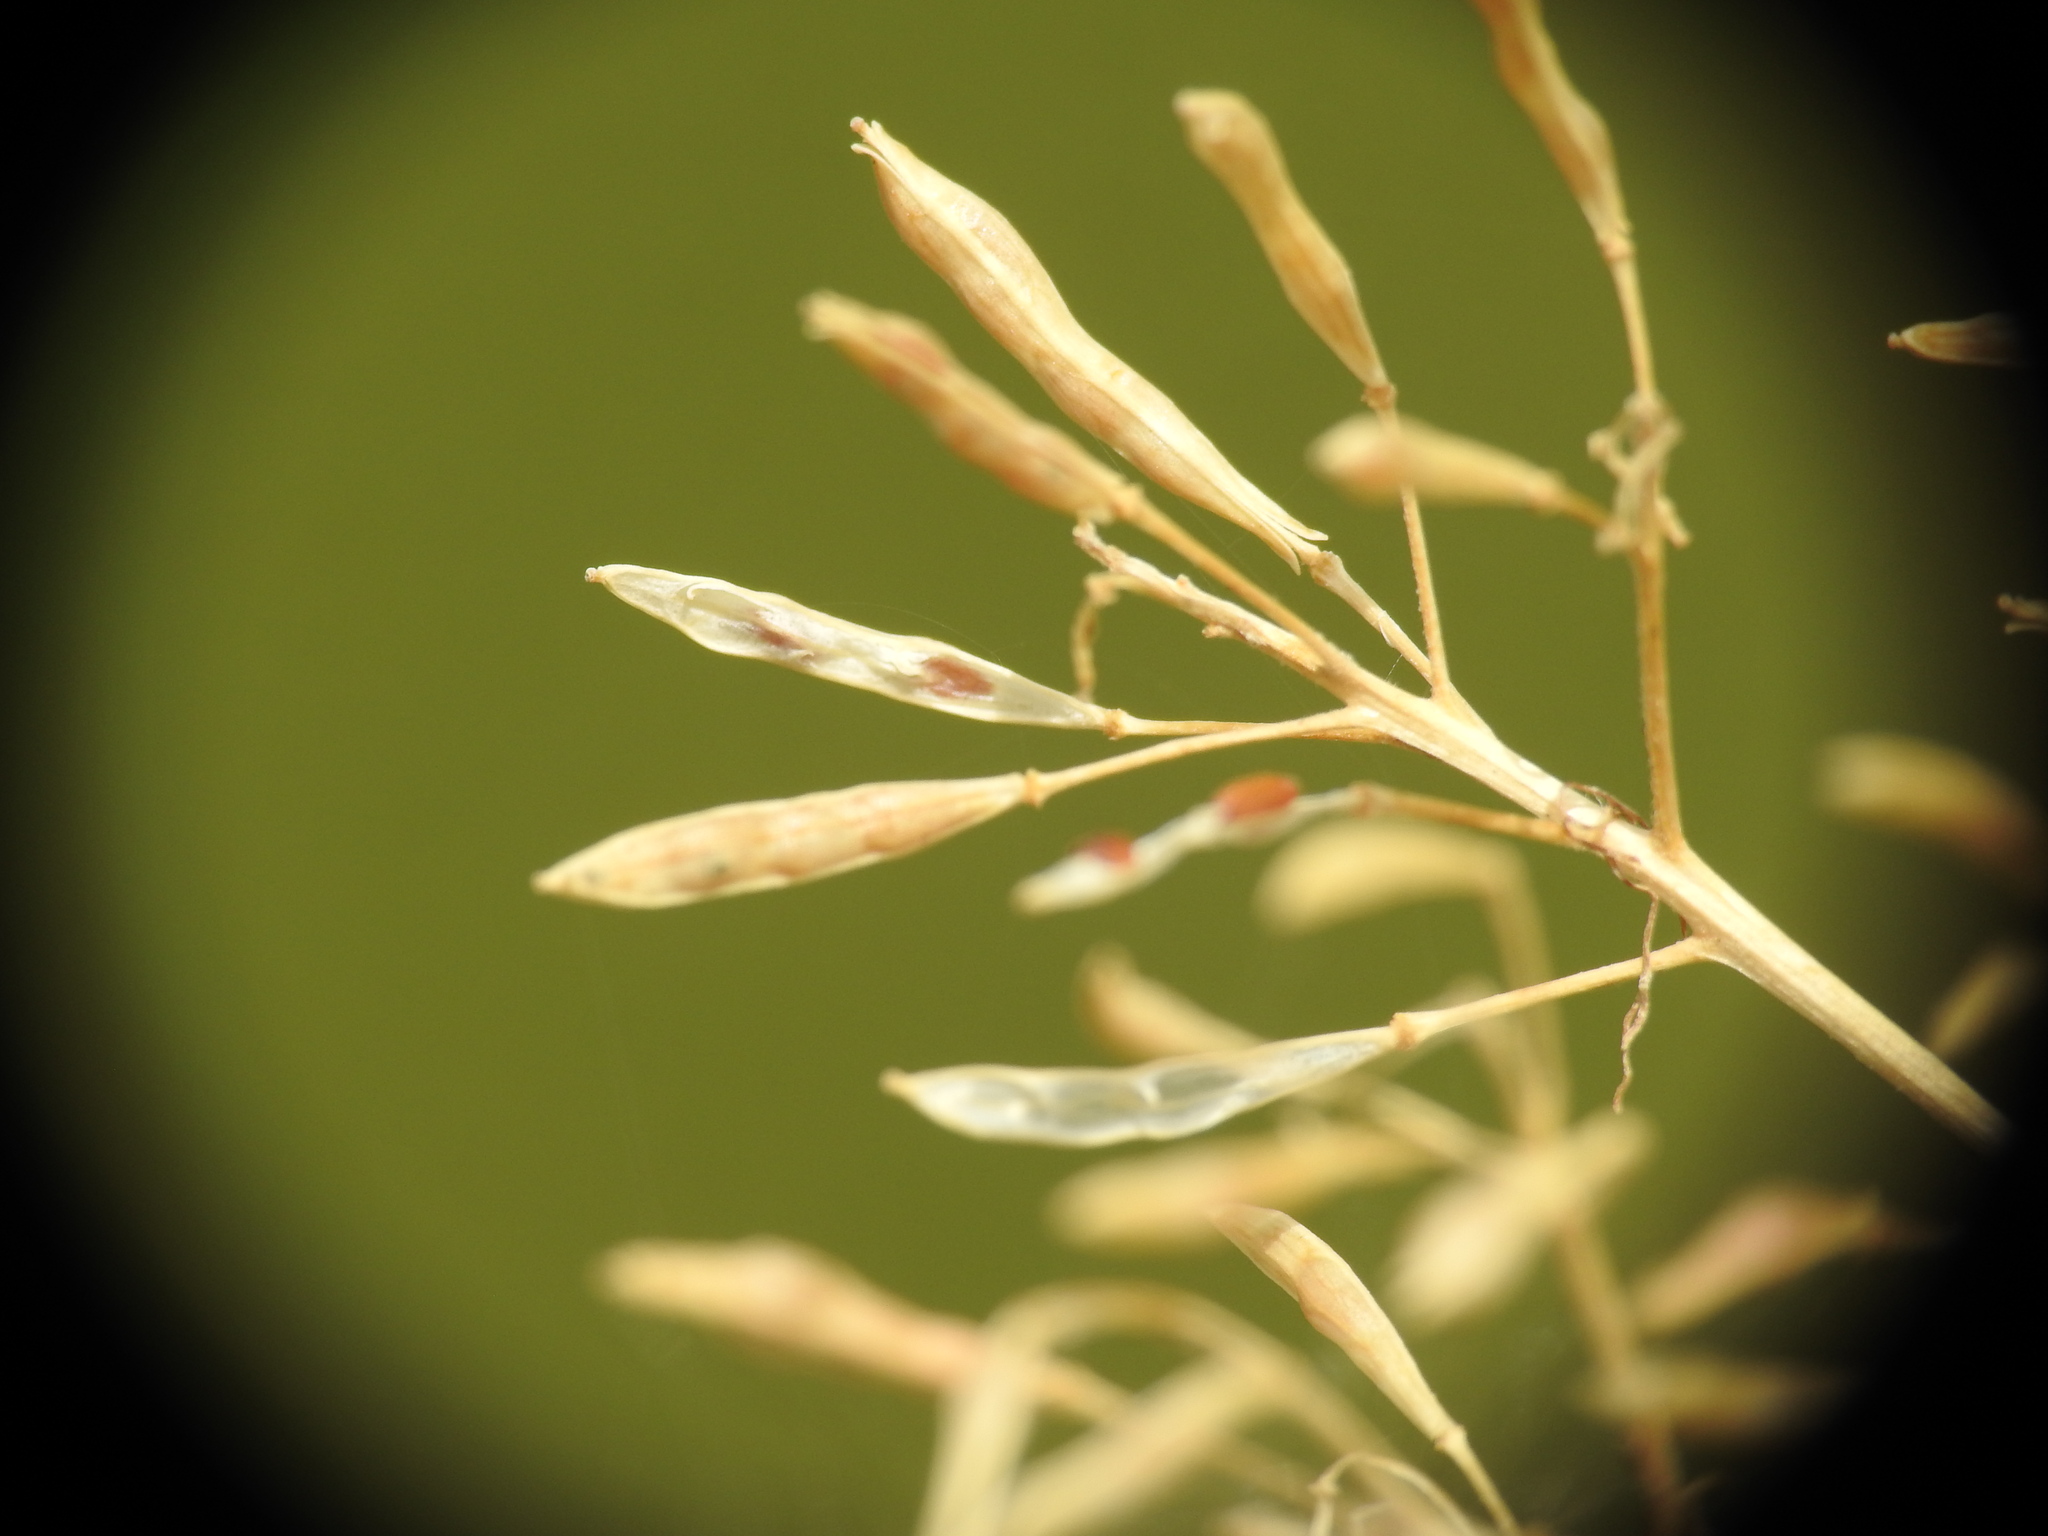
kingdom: Plantae
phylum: Tracheophyta
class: Magnoliopsida
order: Brassicales
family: Brassicaceae
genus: Descurainia
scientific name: Descurainia tanacetifolia
